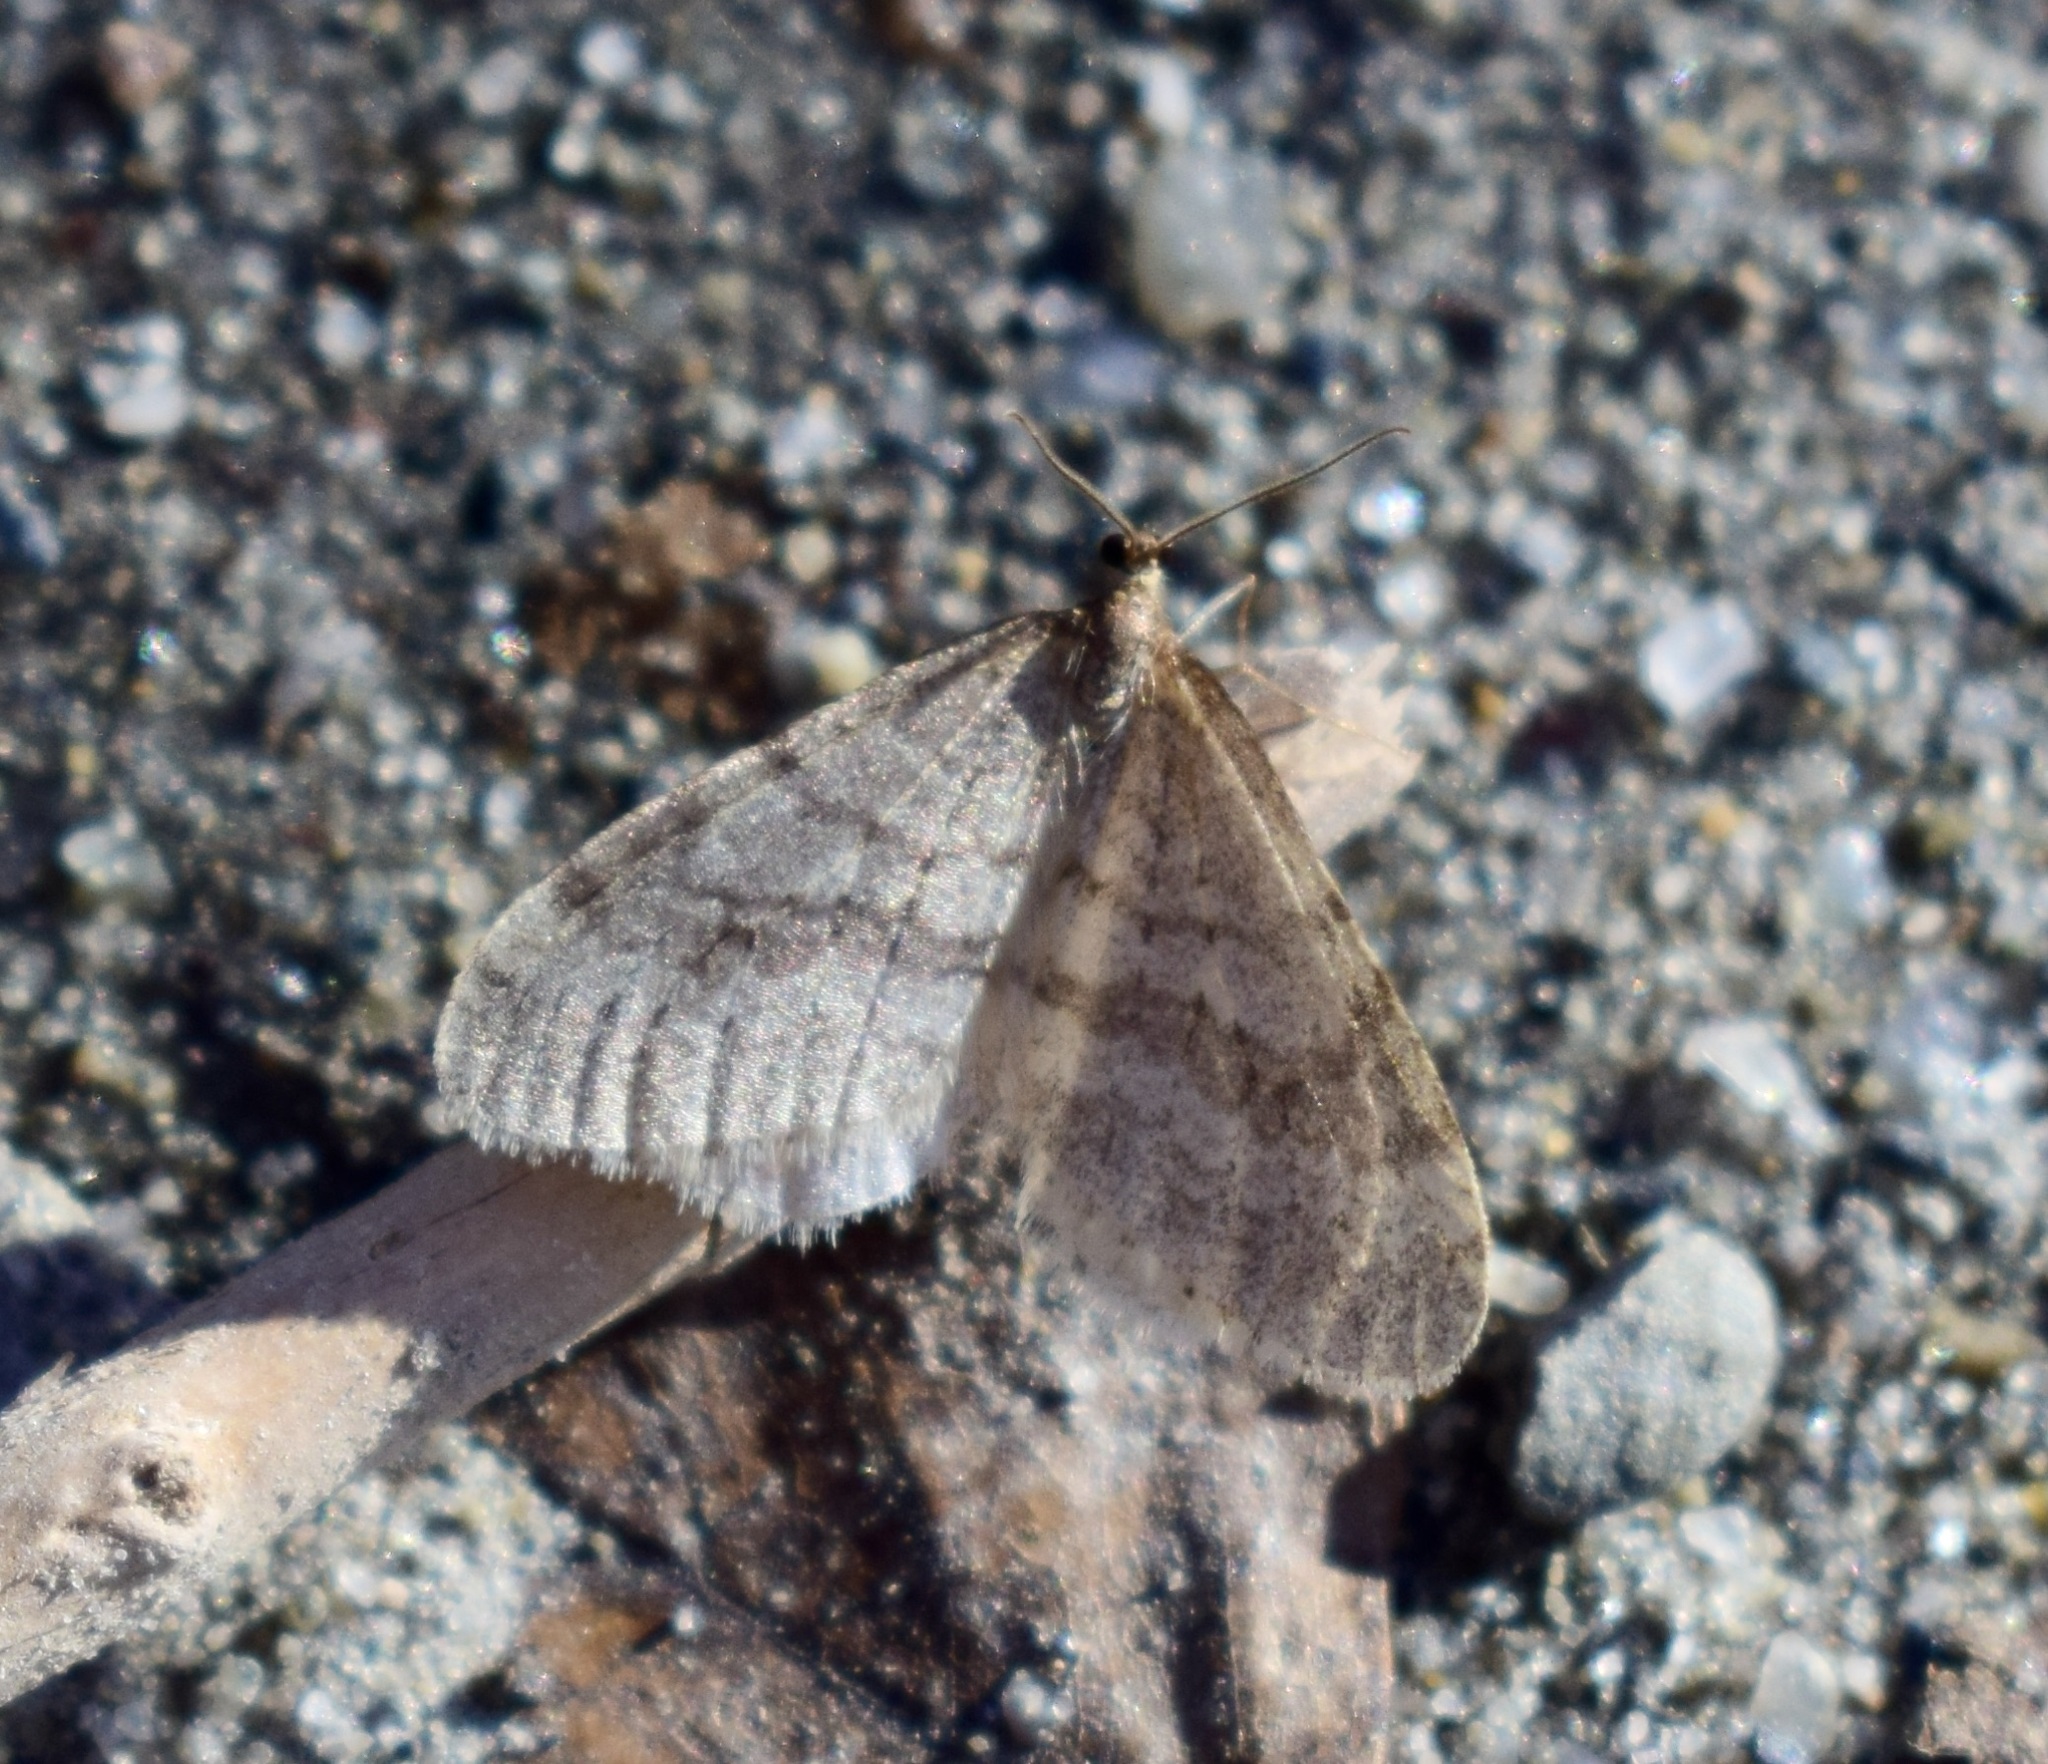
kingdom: Animalia
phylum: Arthropoda
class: Insecta
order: Lepidoptera
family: Geometridae
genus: Operophtera
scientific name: Operophtera bruceata
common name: Bruce spanworm
